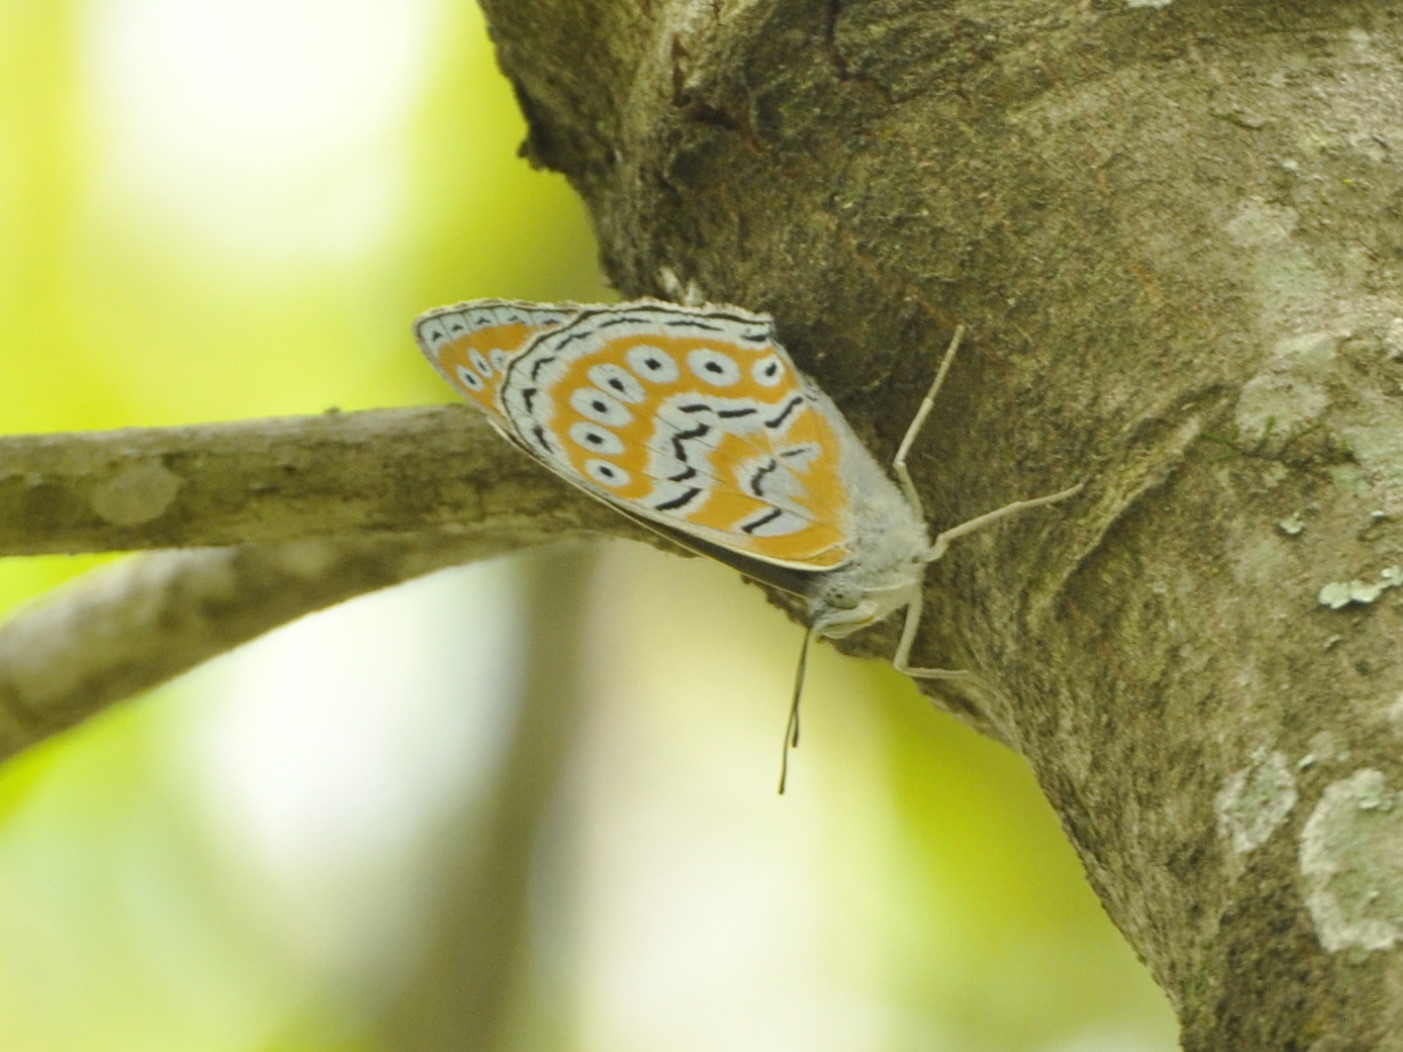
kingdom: Animalia
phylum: Arthropoda
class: Insecta
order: Lepidoptera
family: Nymphalidae
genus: Asterope
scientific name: Asterope rosa
